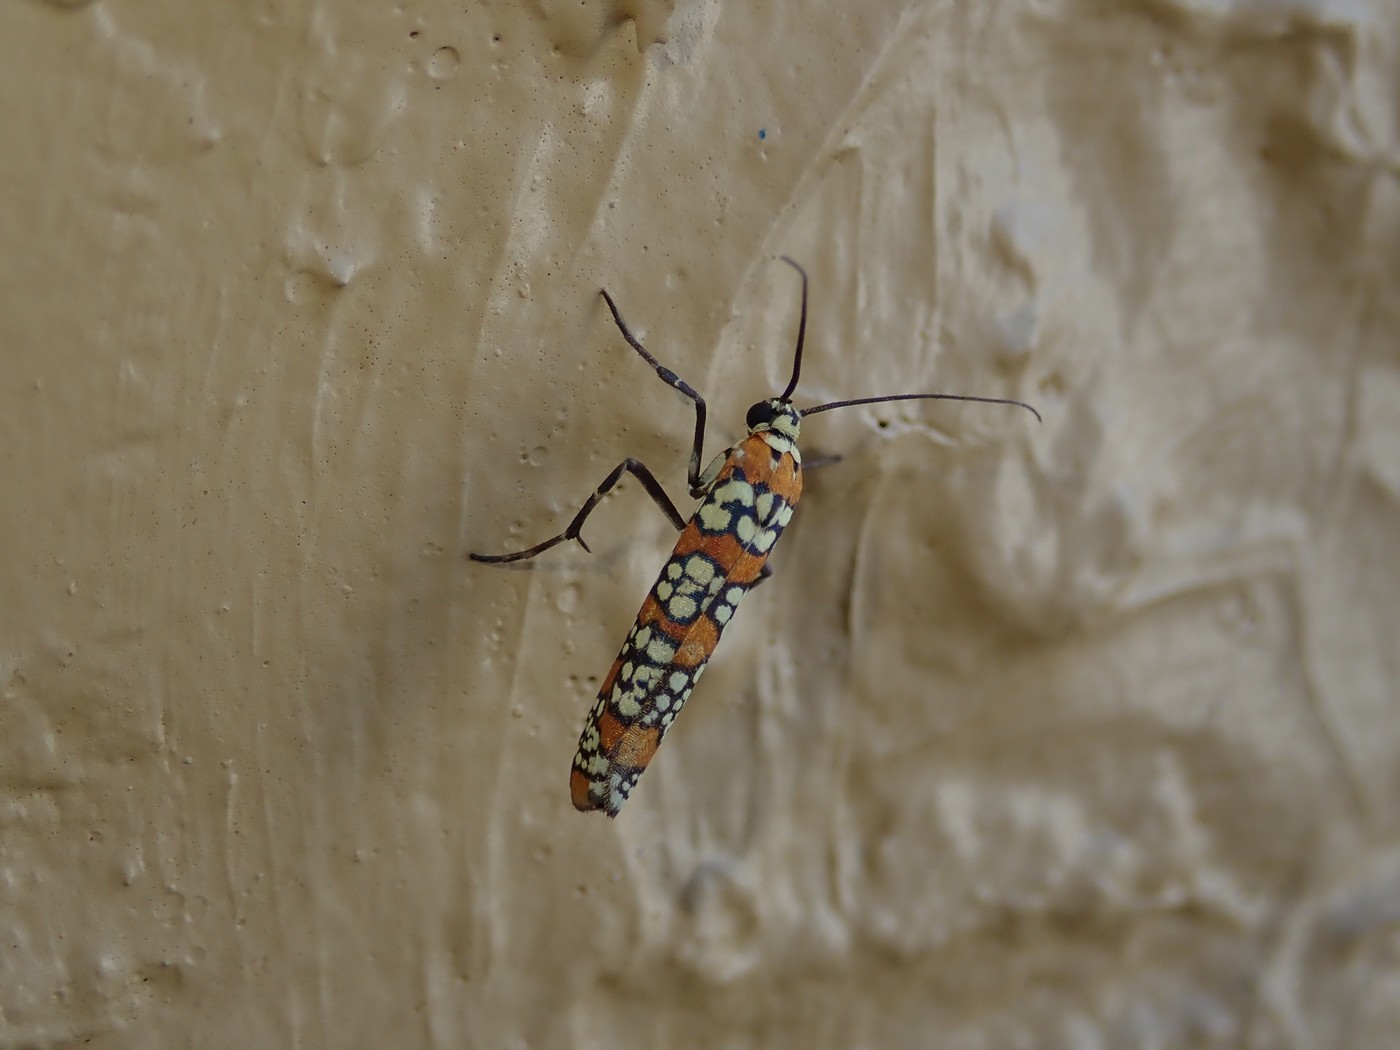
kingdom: Animalia
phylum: Arthropoda
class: Insecta
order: Lepidoptera
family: Attevidae
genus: Atteva
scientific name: Atteva punctella
